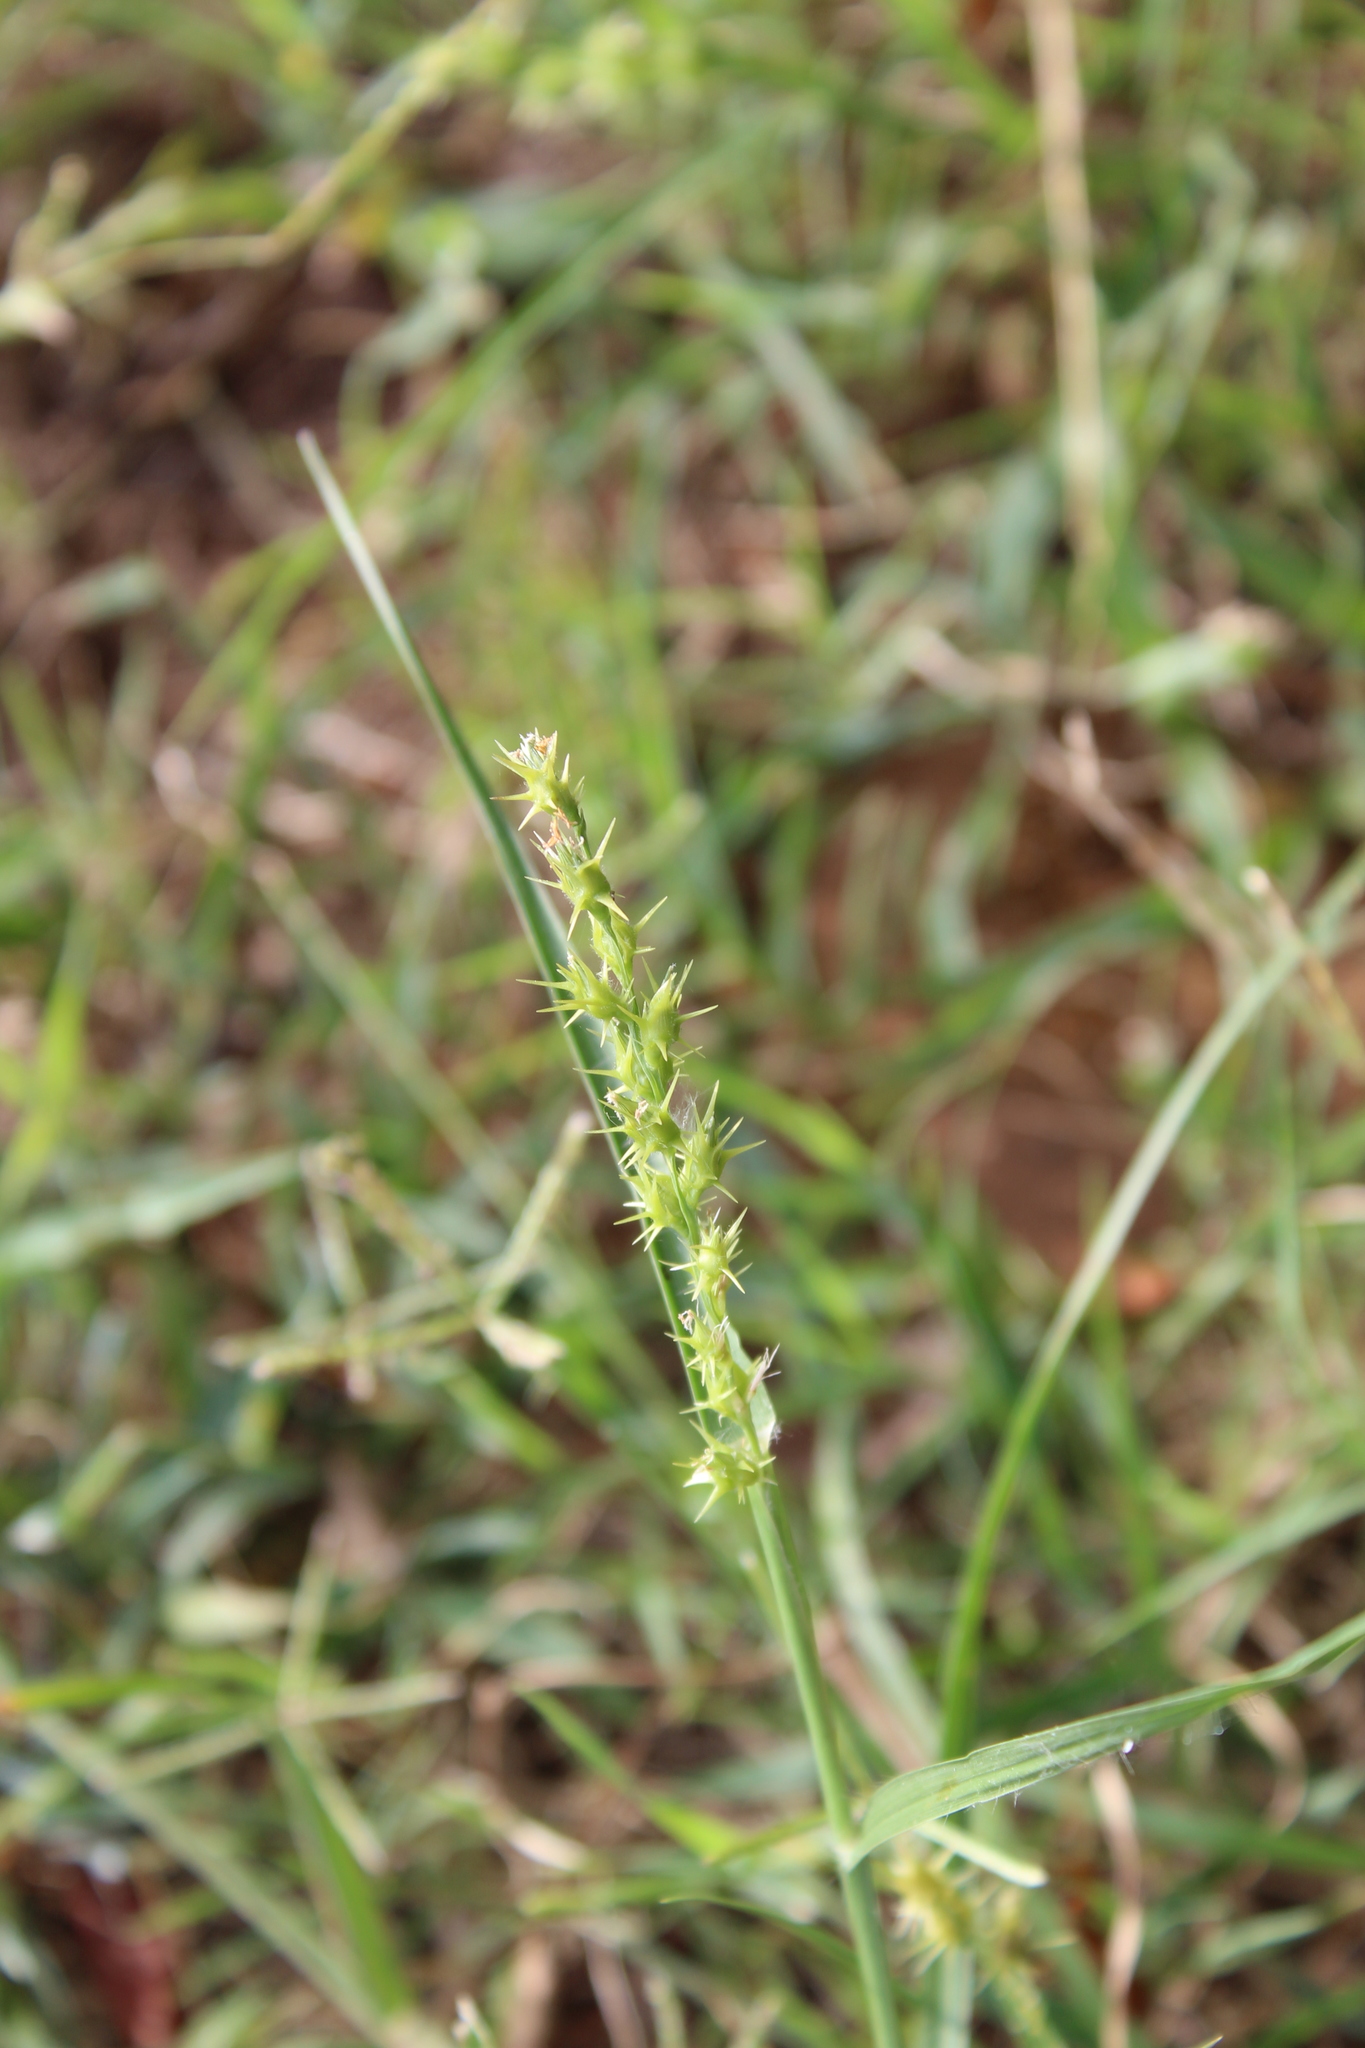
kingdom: Plantae
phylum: Tracheophyta
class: Liliopsida
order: Poales
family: Poaceae
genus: Cenchrus
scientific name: Cenchrus spinifex
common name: Coast sandbur
